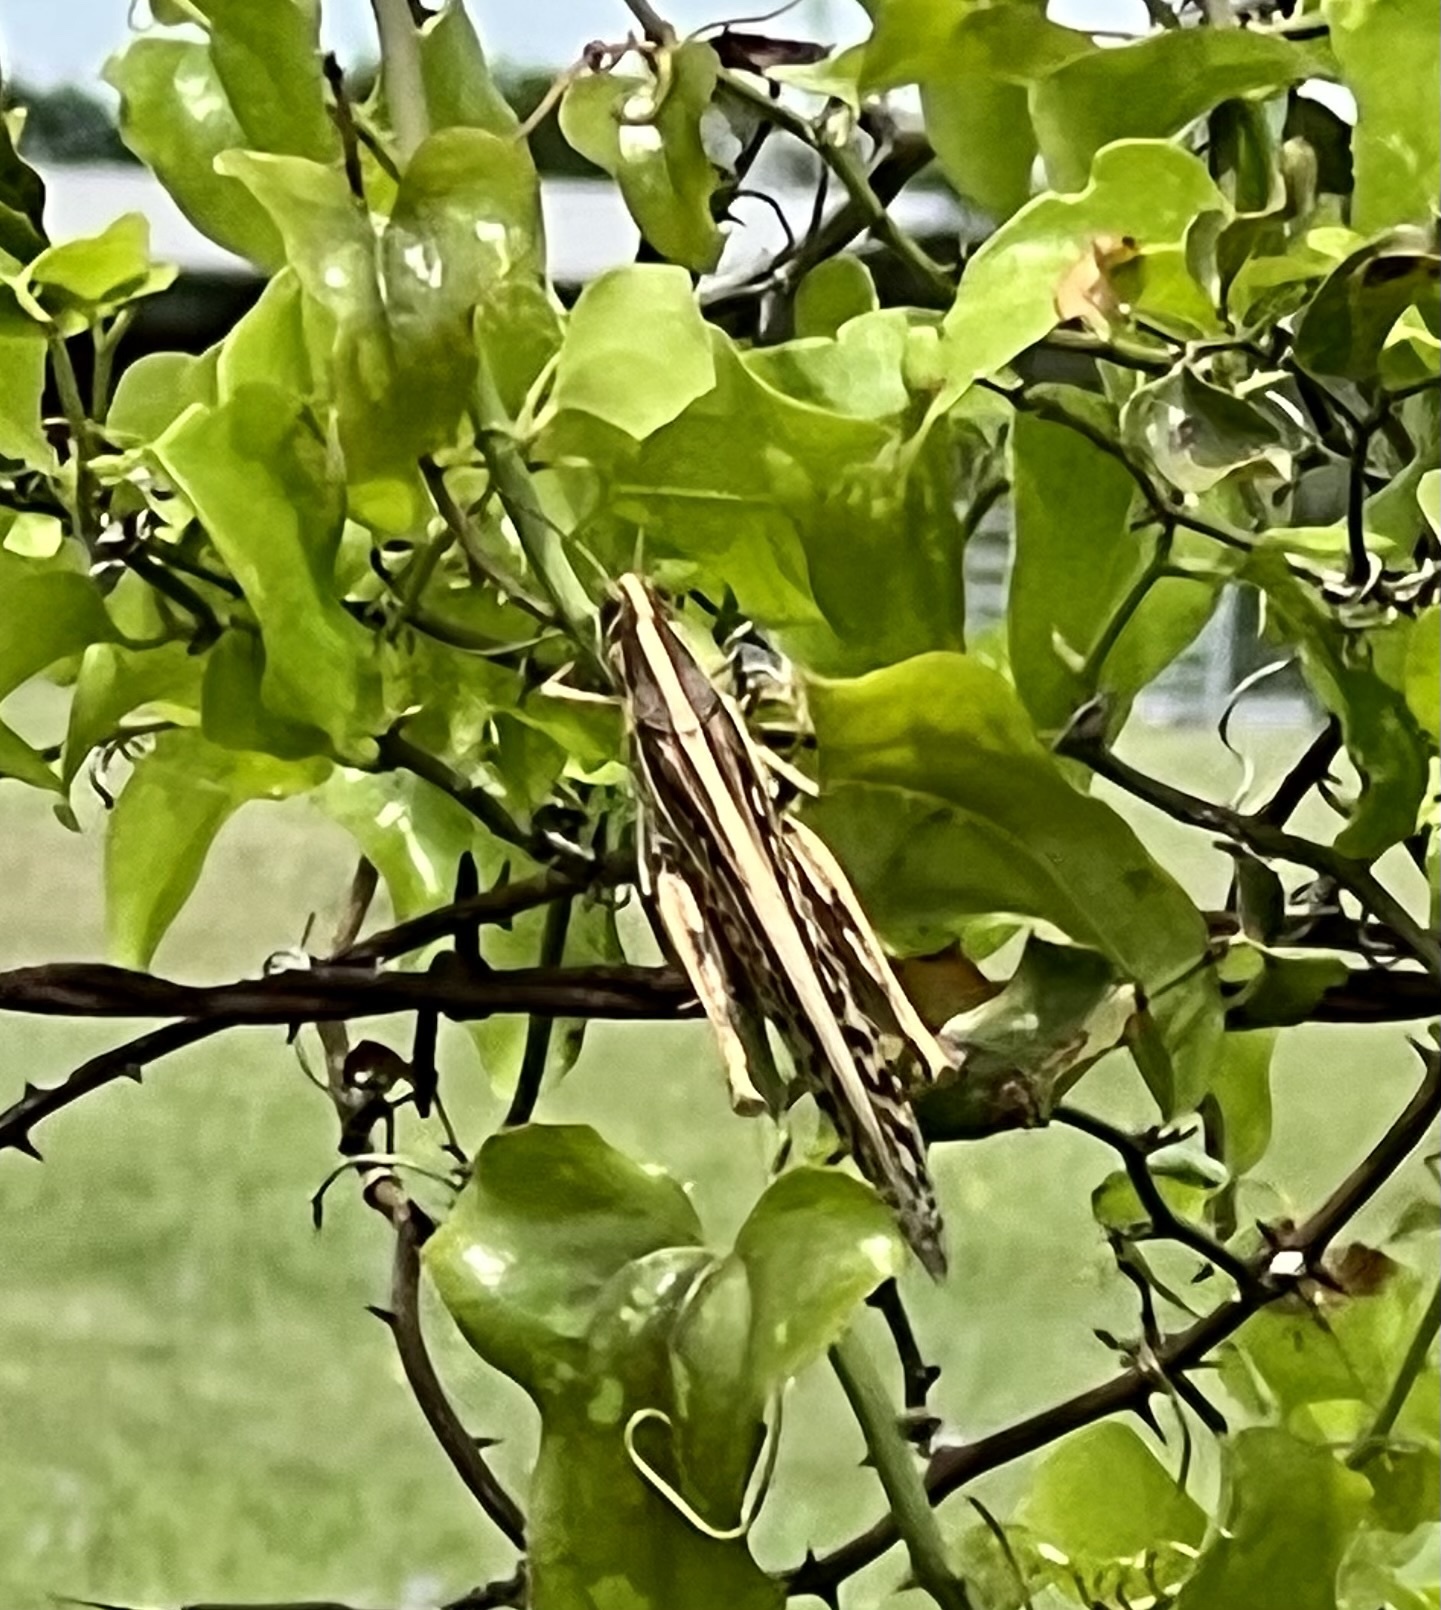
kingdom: Animalia
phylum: Arthropoda
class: Insecta
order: Orthoptera
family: Acrididae
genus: Schistocerca
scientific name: Schistocerca americana
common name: American bird locust
